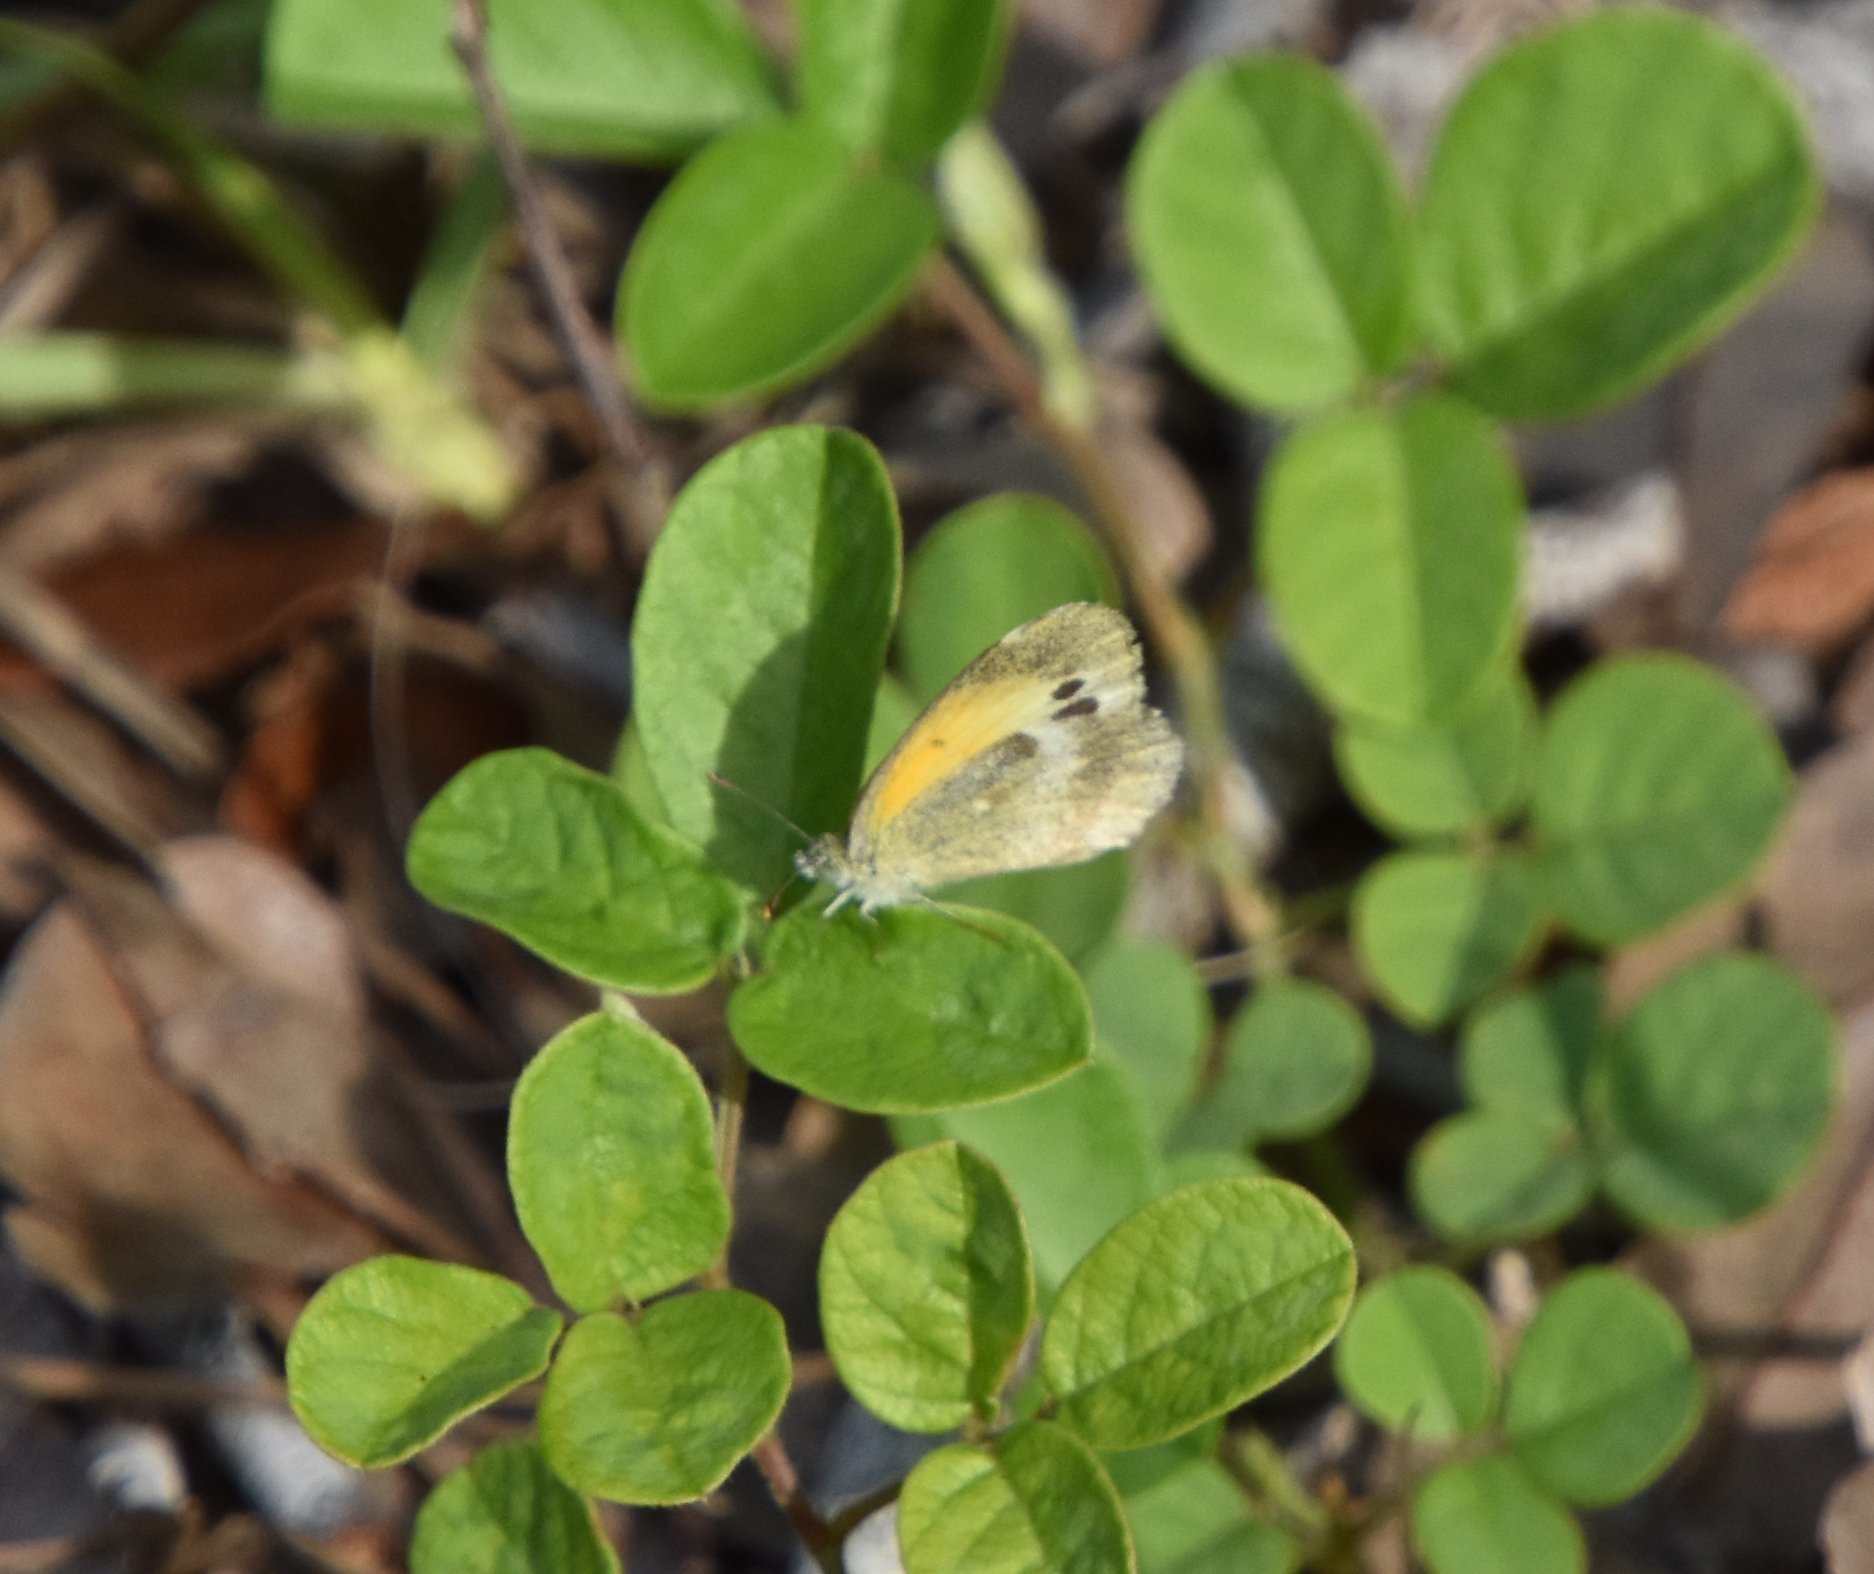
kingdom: Animalia
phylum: Arthropoda
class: Insecta
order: Lepidoptera
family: Pieridae
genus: Nathalis
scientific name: Nathalis iole
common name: Dainty sulphur
